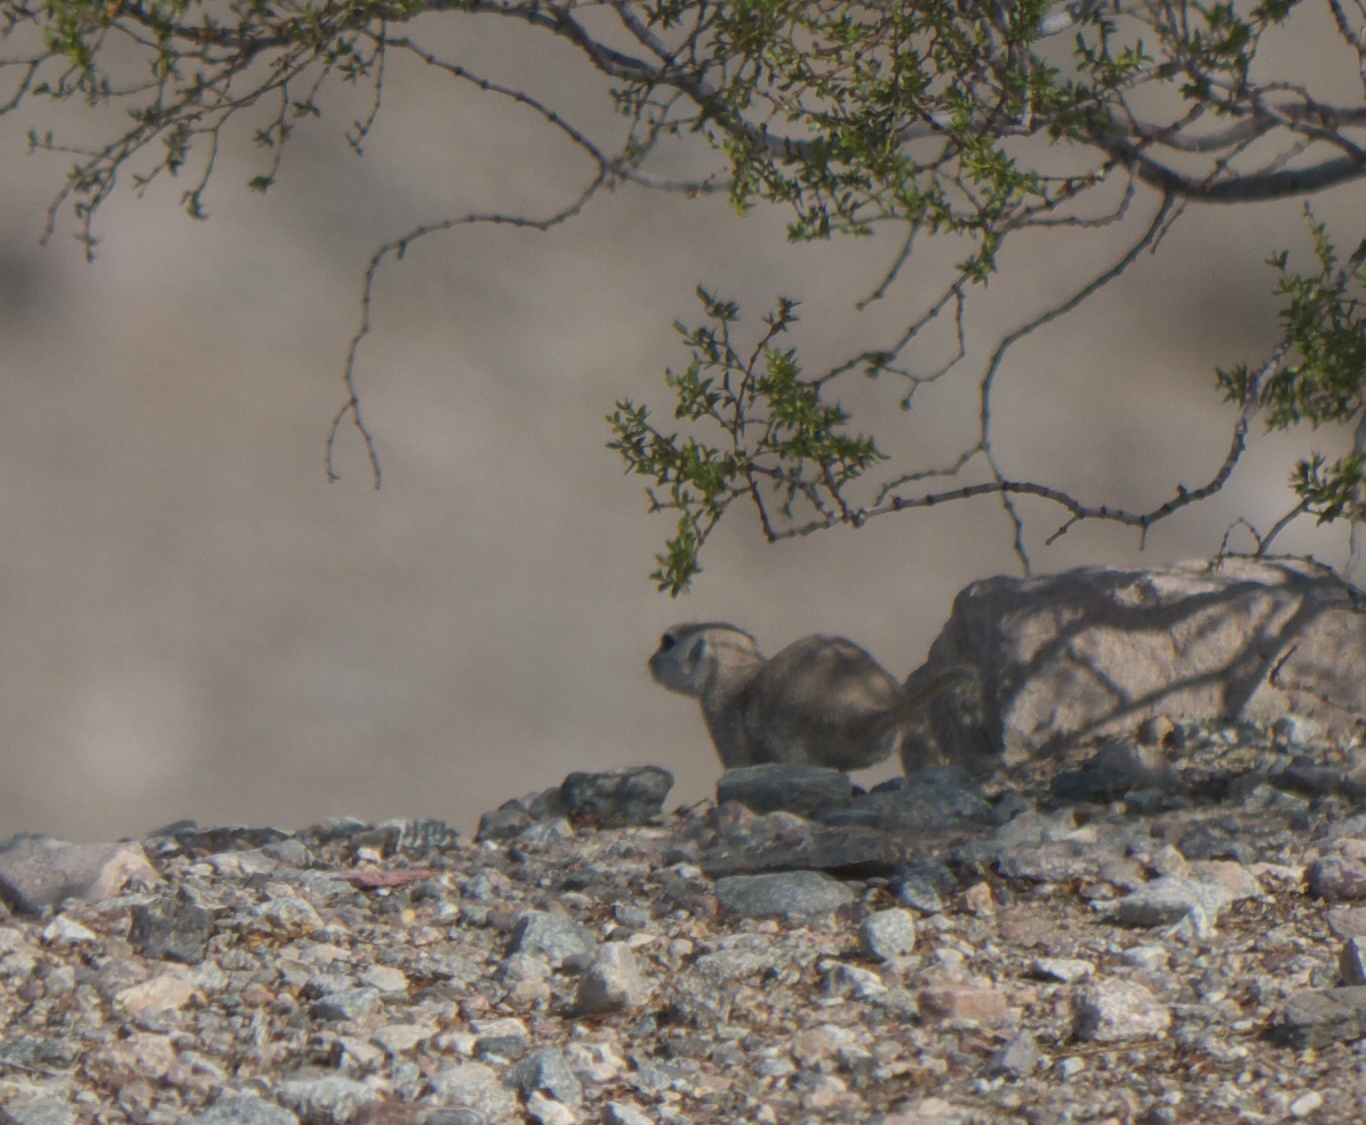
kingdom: Animalia
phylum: Chordata
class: Mammalia
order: Rodentia
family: Sciuridae
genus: Xerospermophilus
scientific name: Xerospermophilus tereticaudus
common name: Round-tailed ground squirrel
